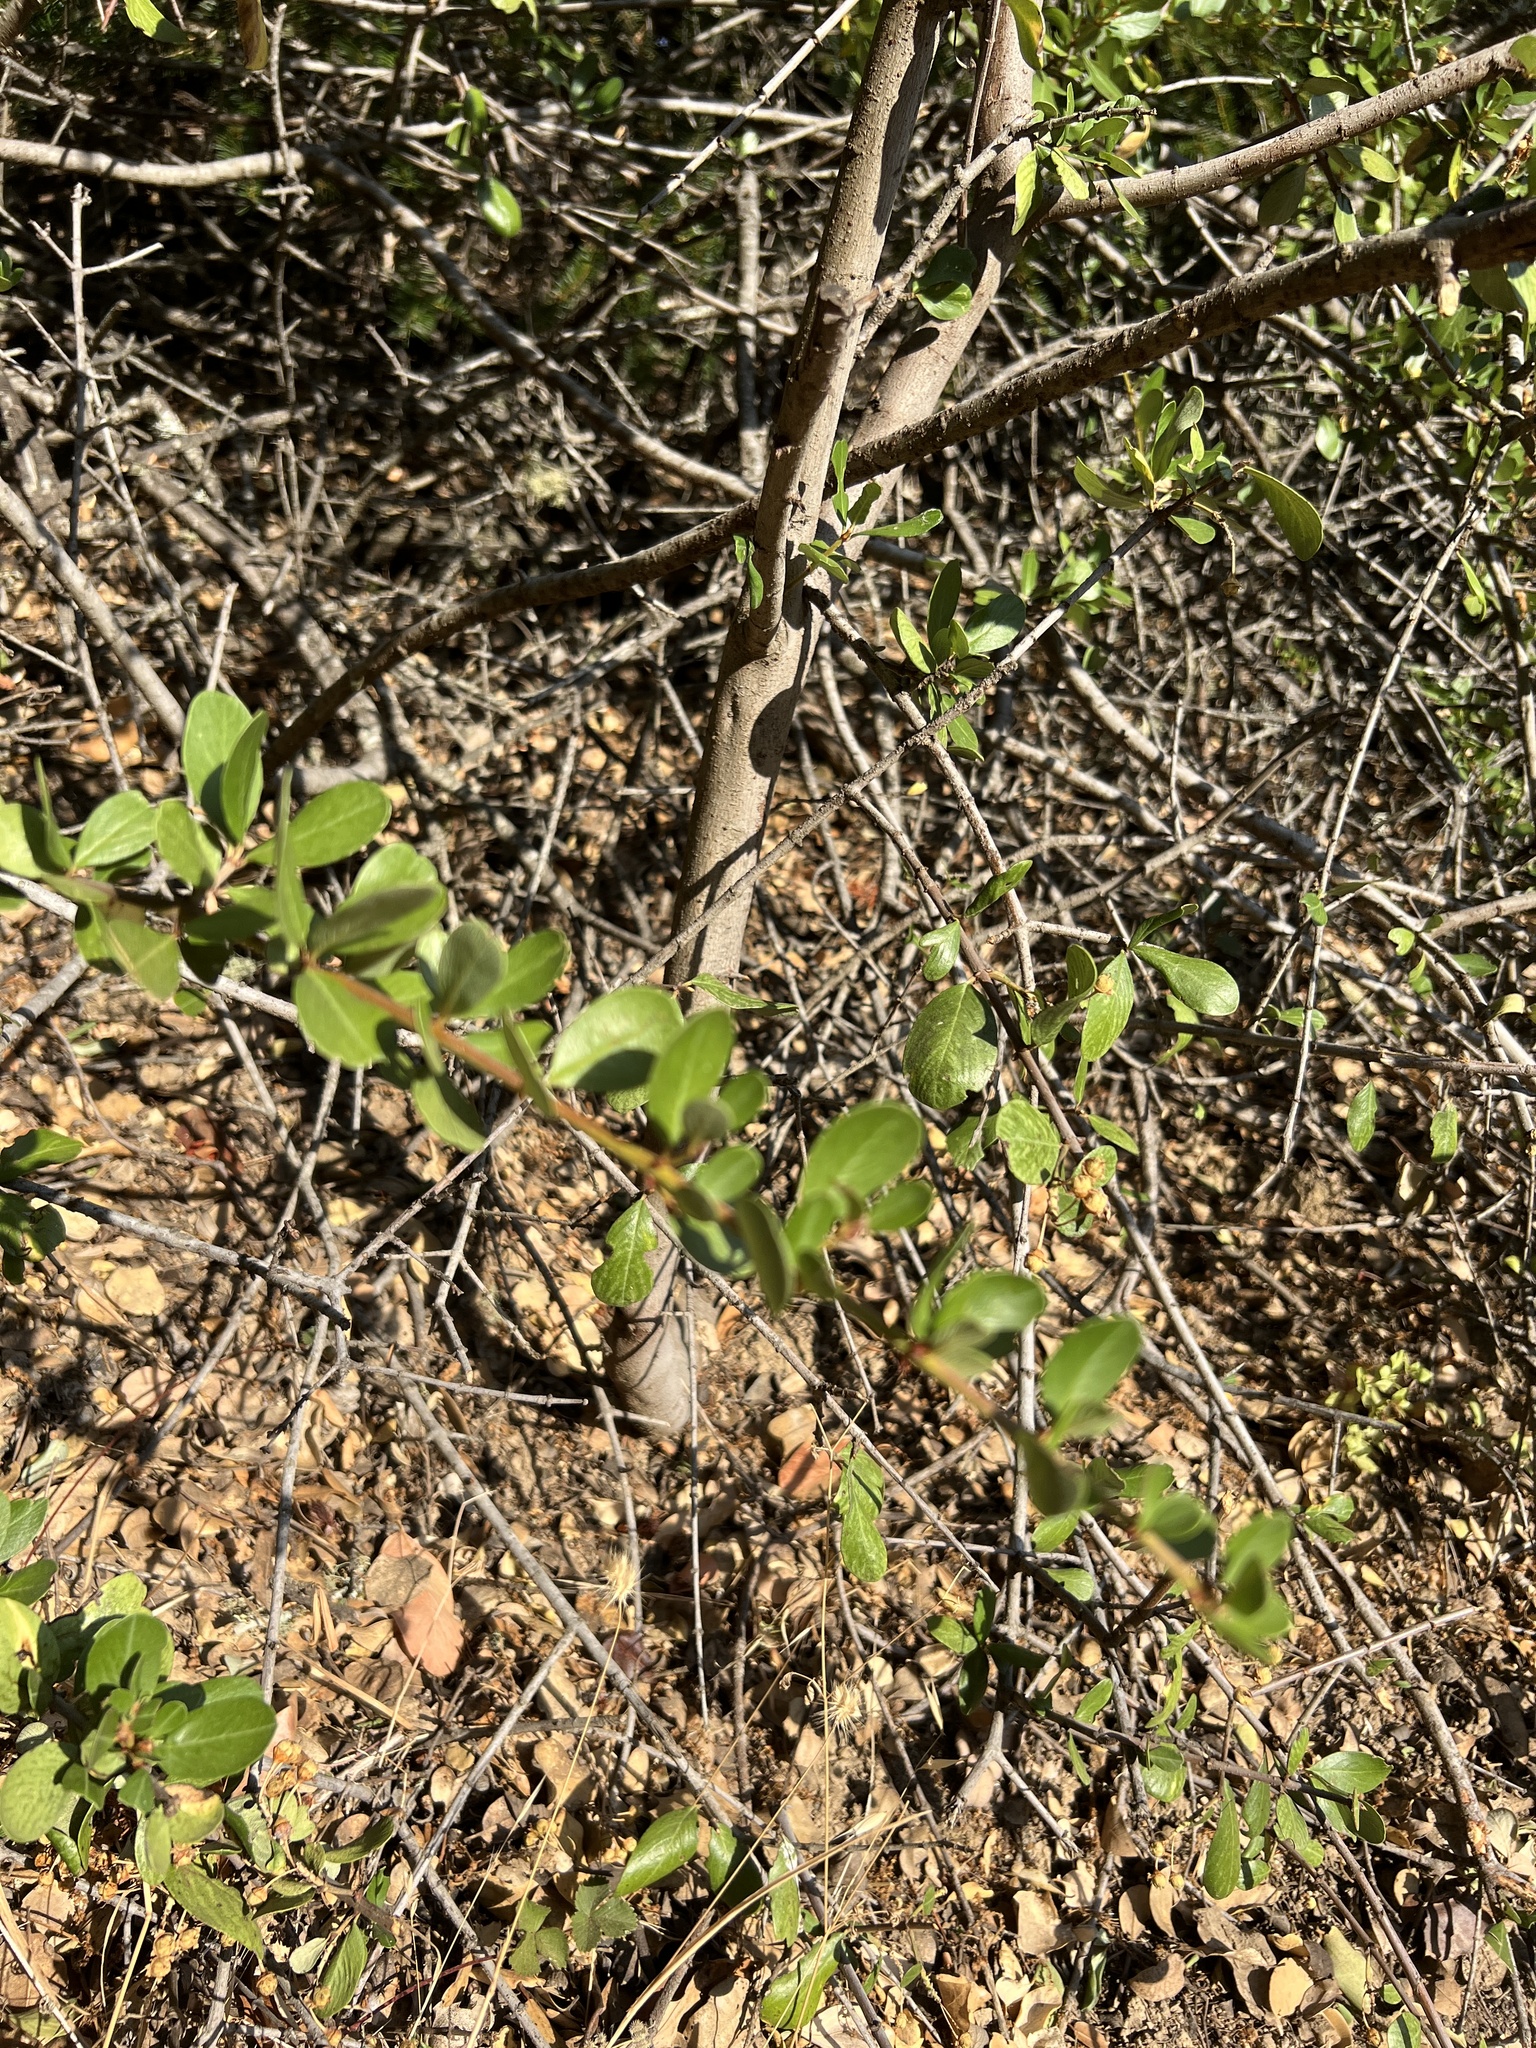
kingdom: Plantae
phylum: Tracheophyta
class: Magnoliopsida
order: Rosales
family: Rhamnaceae
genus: Ceanothus
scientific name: Ceanothus cuneatus
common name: Cuneate ceanothus
